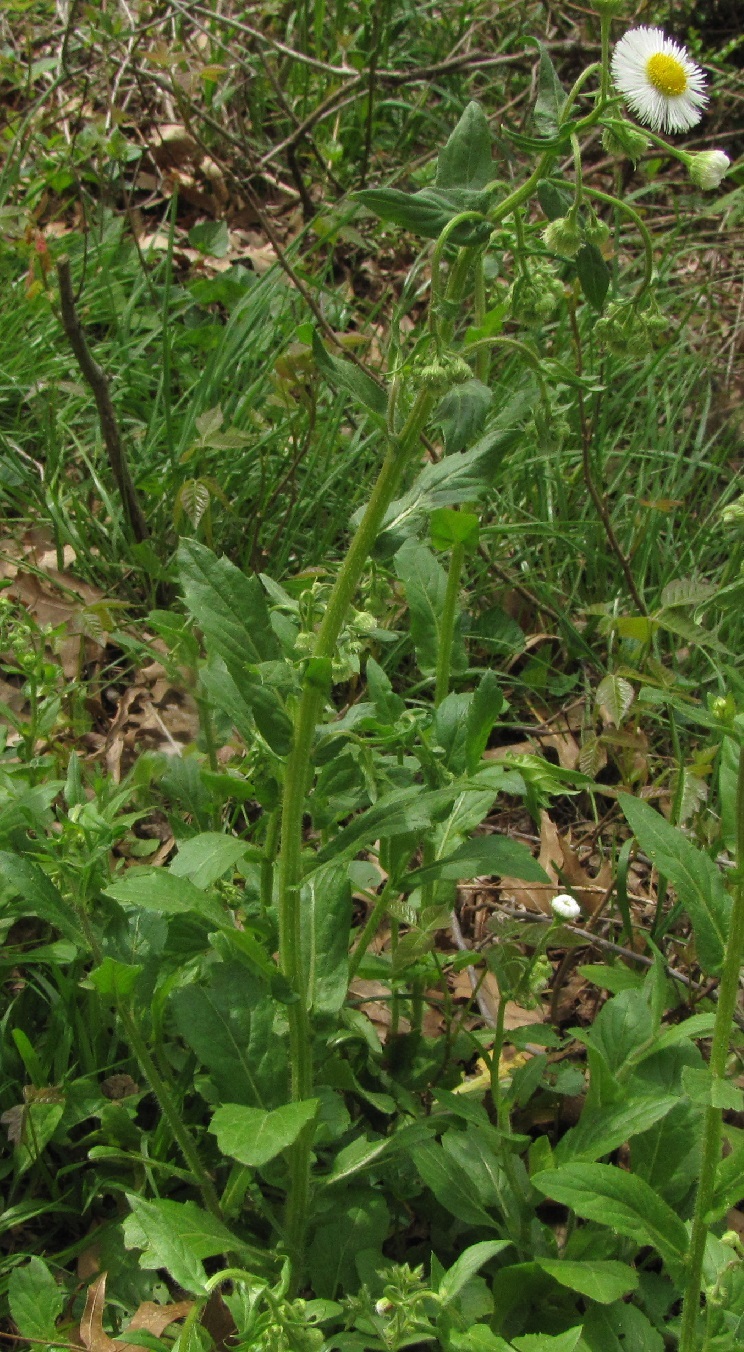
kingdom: Plantae
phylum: Tracheophyta
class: Magnoliopsida
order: Asterales
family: Asteraceae
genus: Erigeron
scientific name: Erigeron philadelphicus
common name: Robin's-plantain
